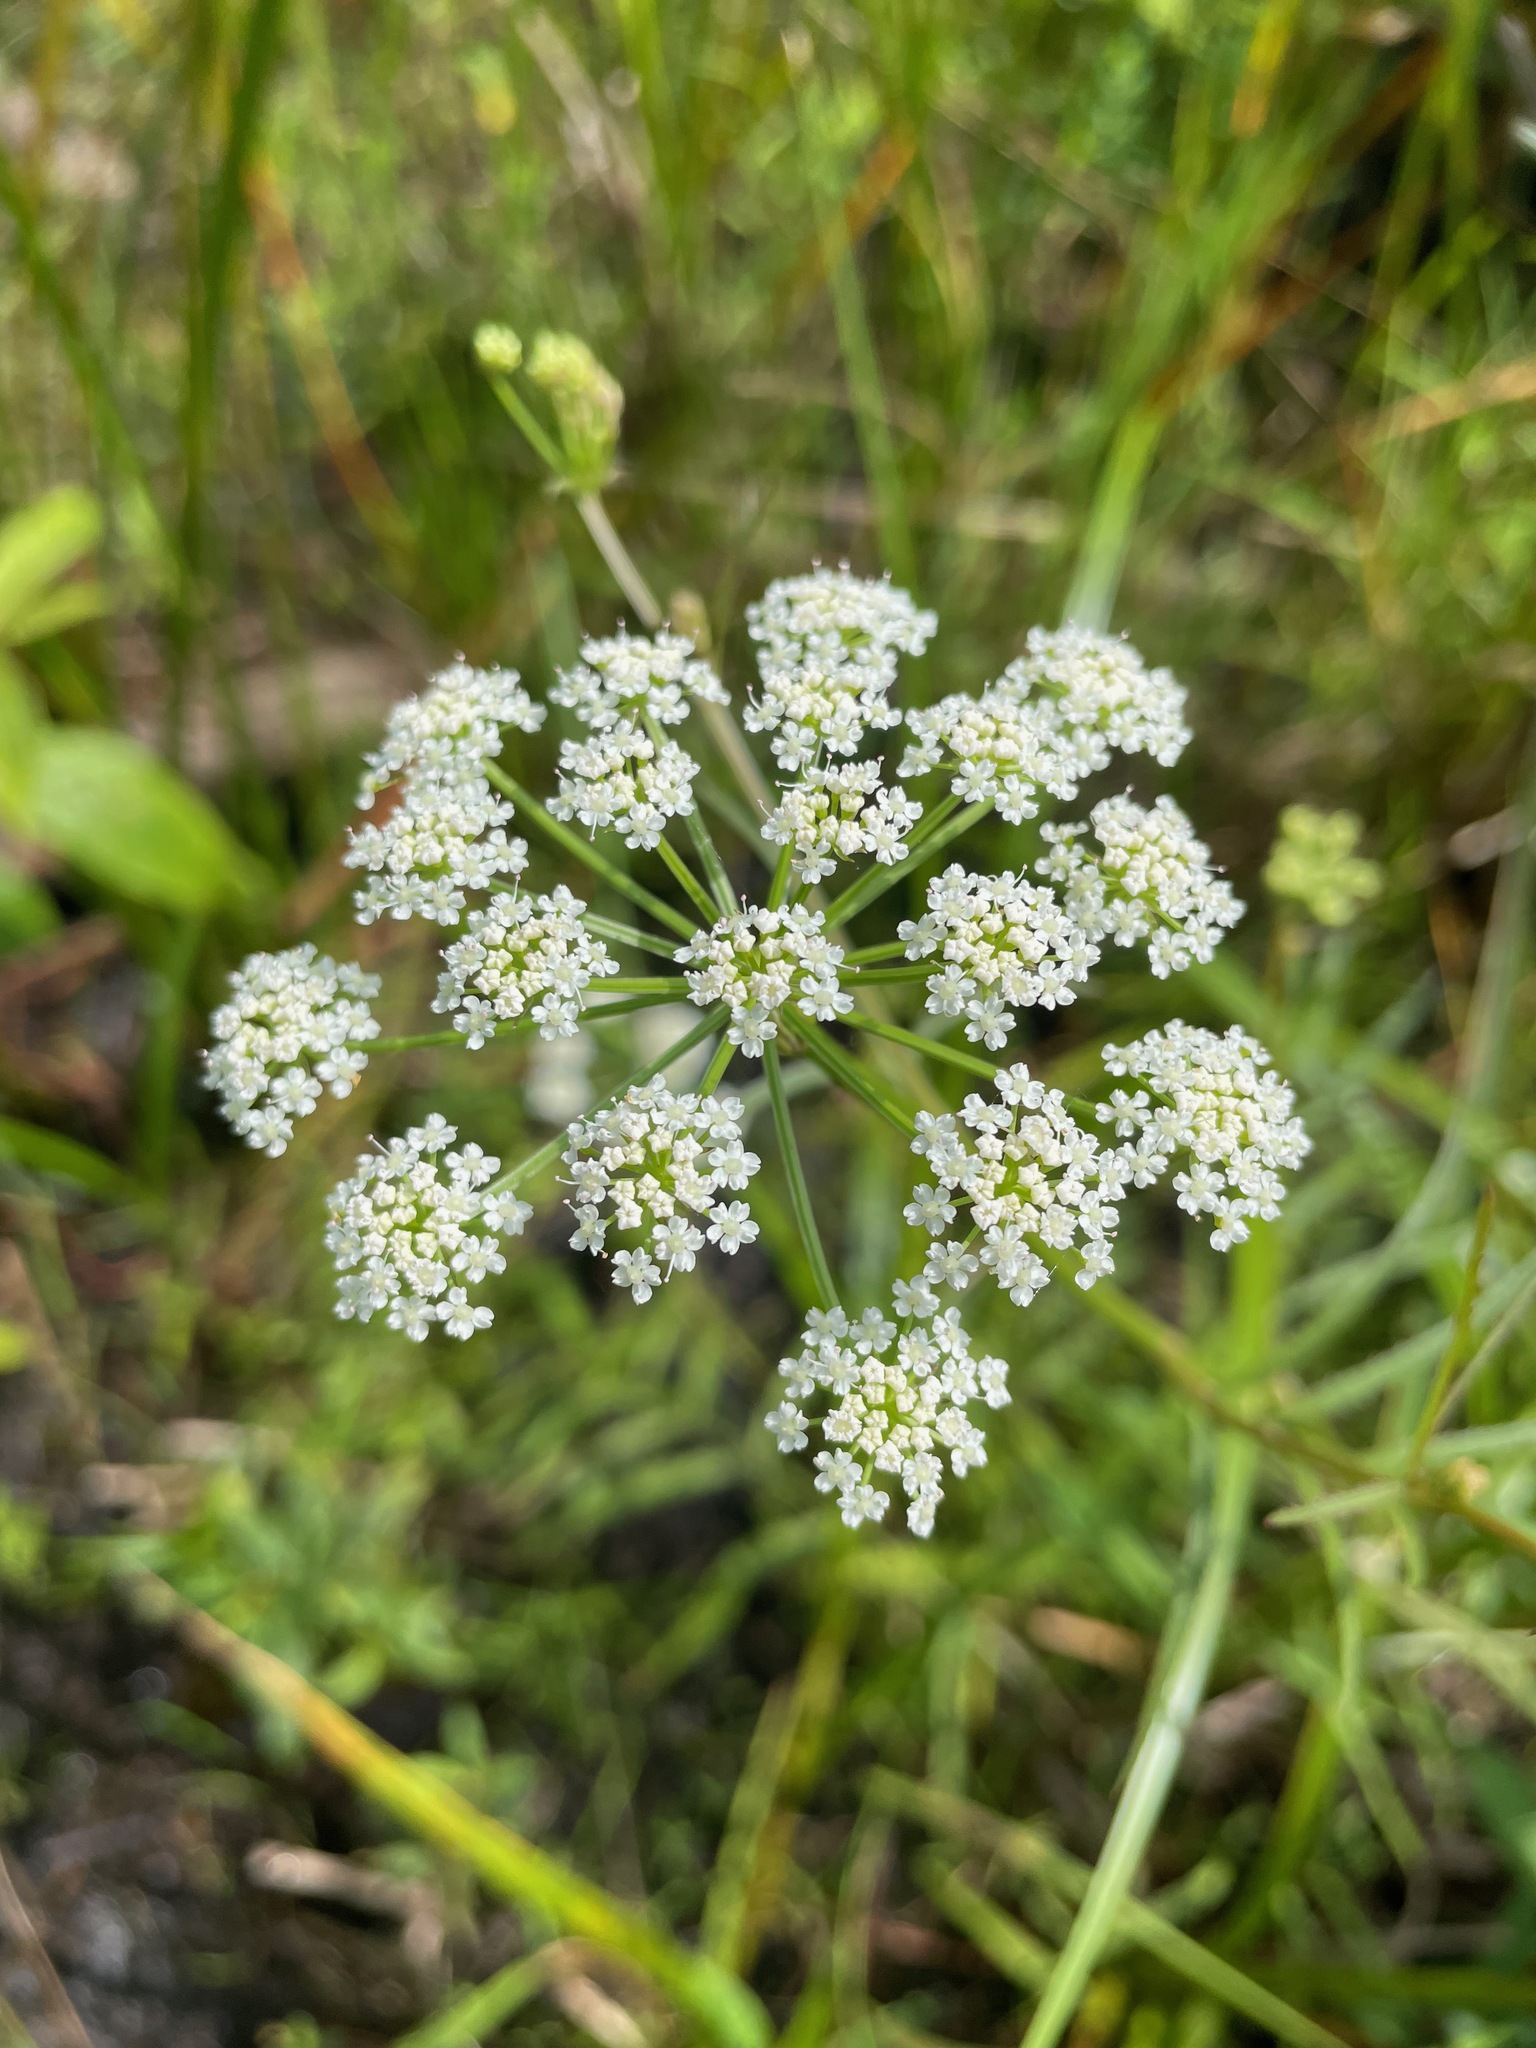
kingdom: Plantae
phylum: Tracheophyta
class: Magnoliopsida
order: Apiales
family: Apiaceae
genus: Sium
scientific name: Sium suave
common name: Hemlock water-parsnip
